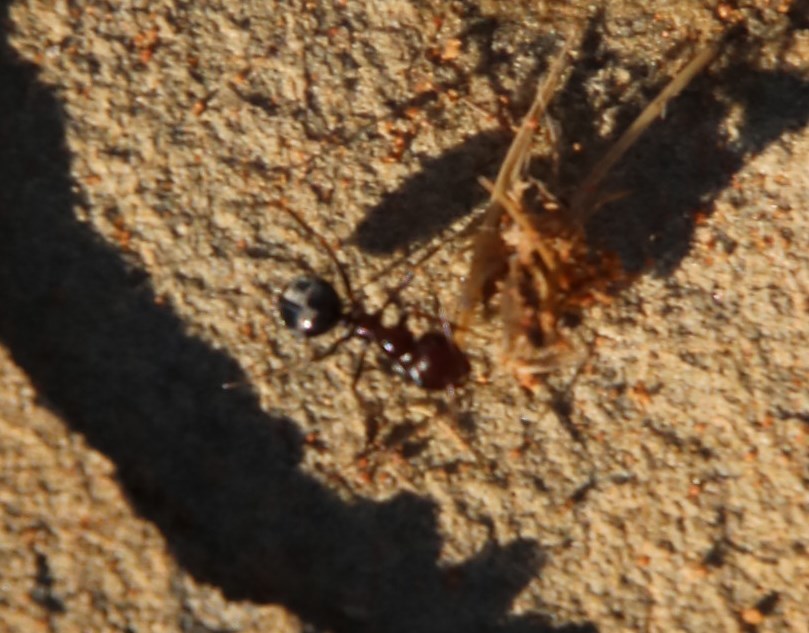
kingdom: Animalia
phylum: Arthropoda
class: Insecta
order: Hymenoptera
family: Formicidae
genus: Anoplolepis
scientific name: Anoplolepis custodiens
